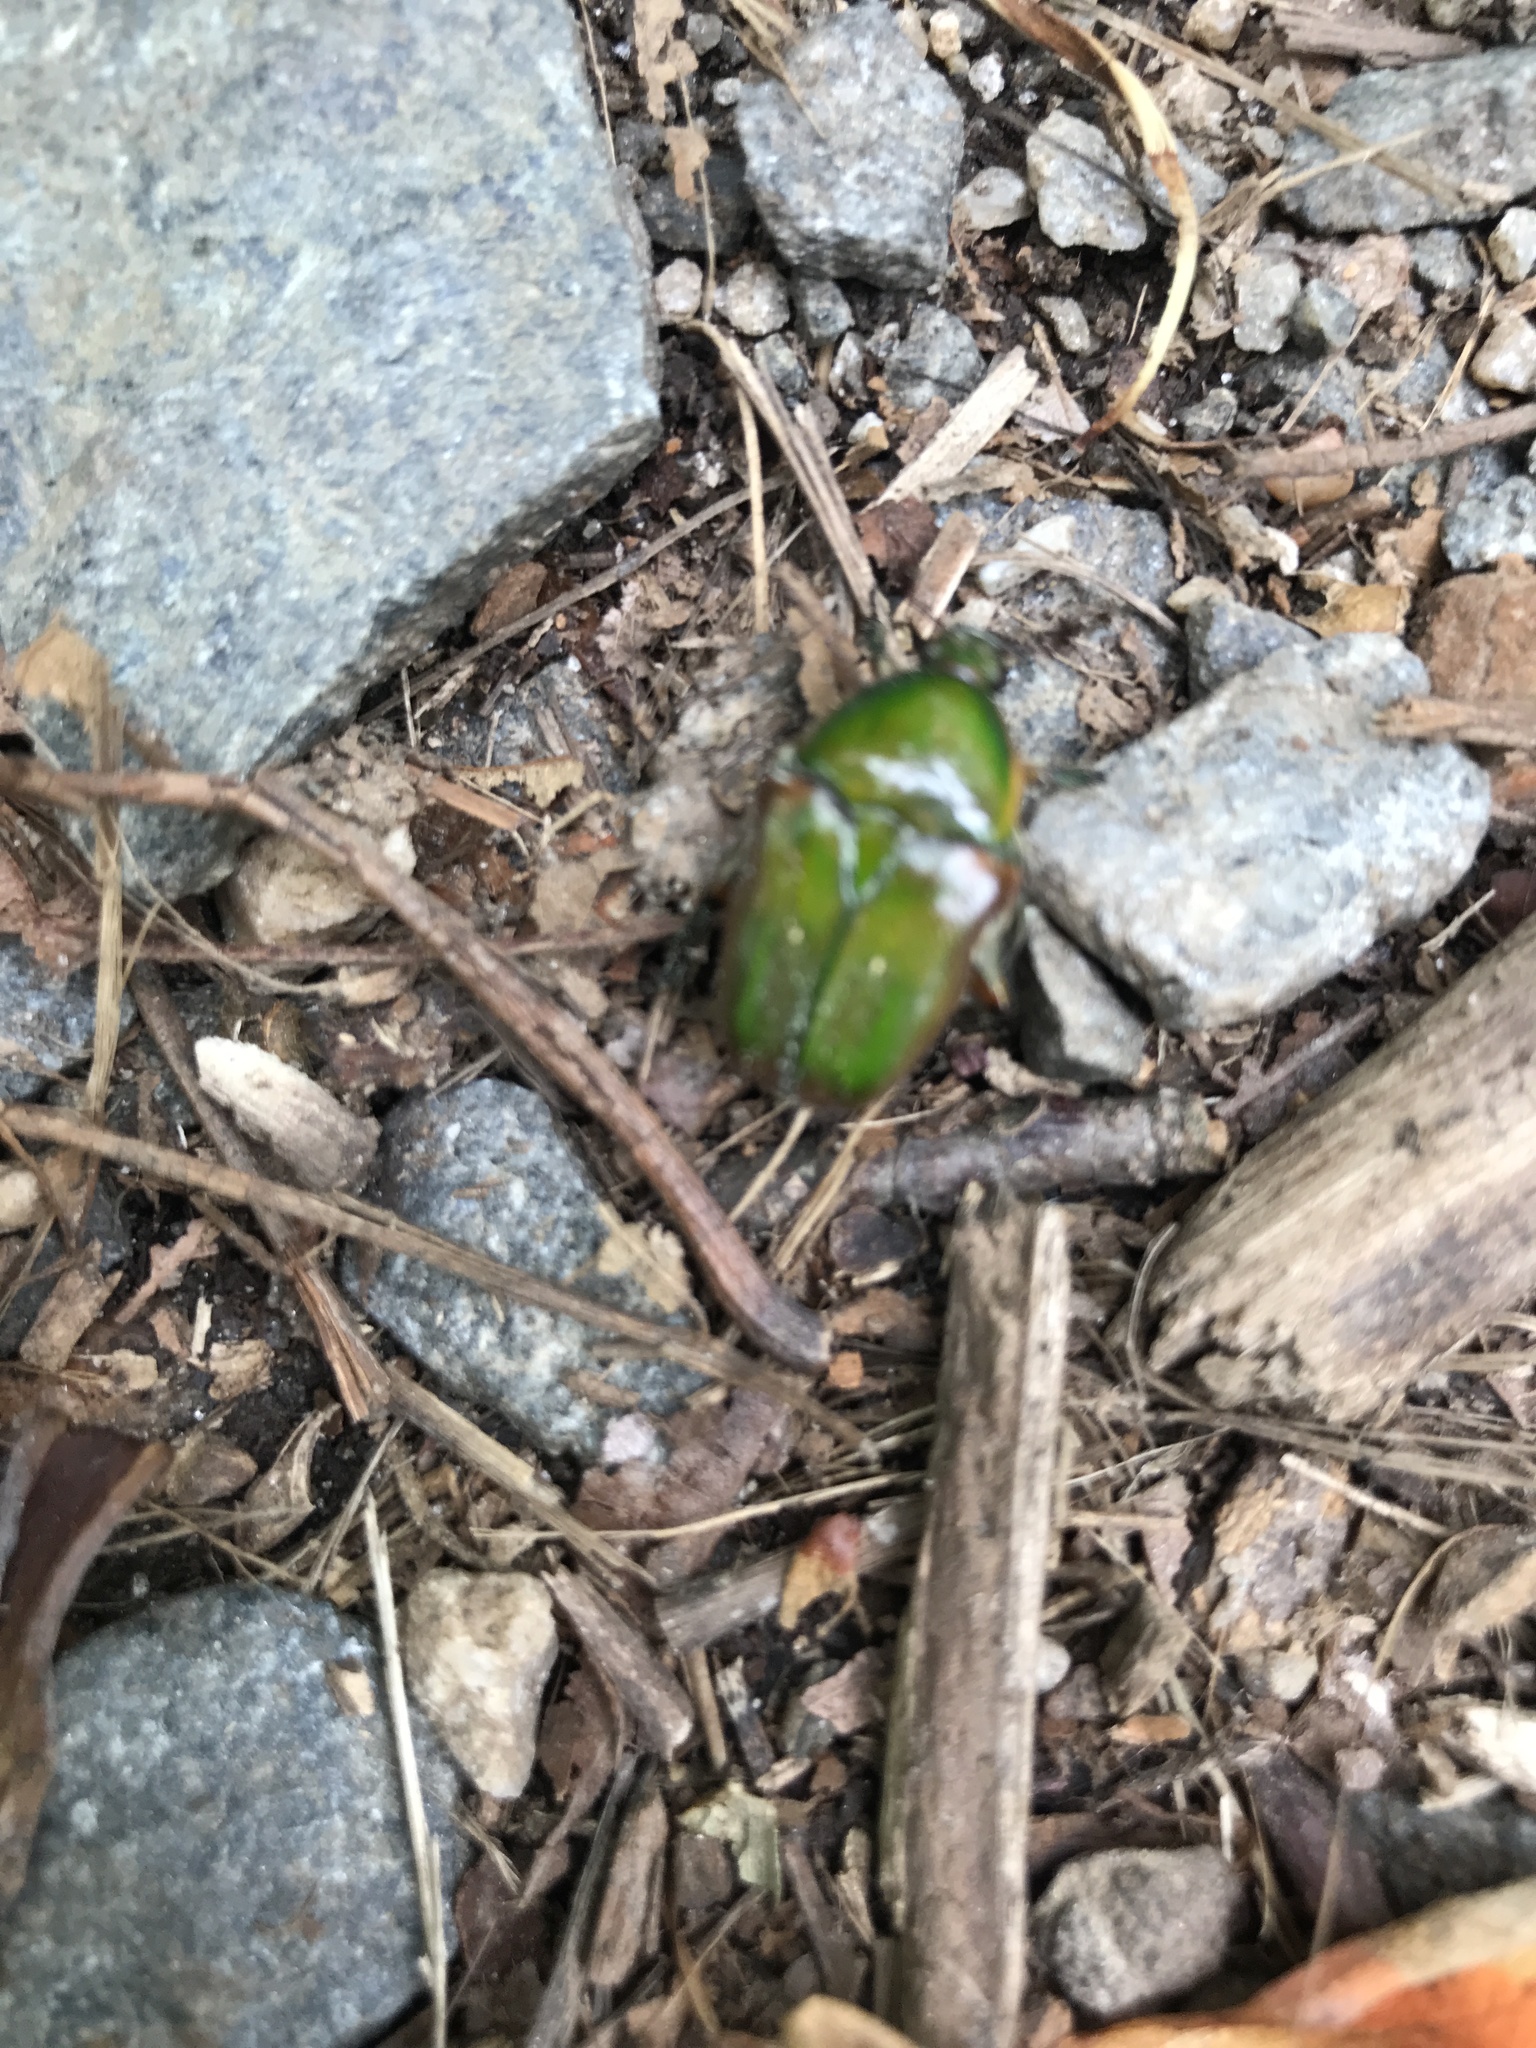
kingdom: Animalia
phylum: Arthropoda
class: Insecta
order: Coleoptera
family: Scarabaeidae
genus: Euphoria
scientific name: Euphoria fulgida
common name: Emerald euphoria
